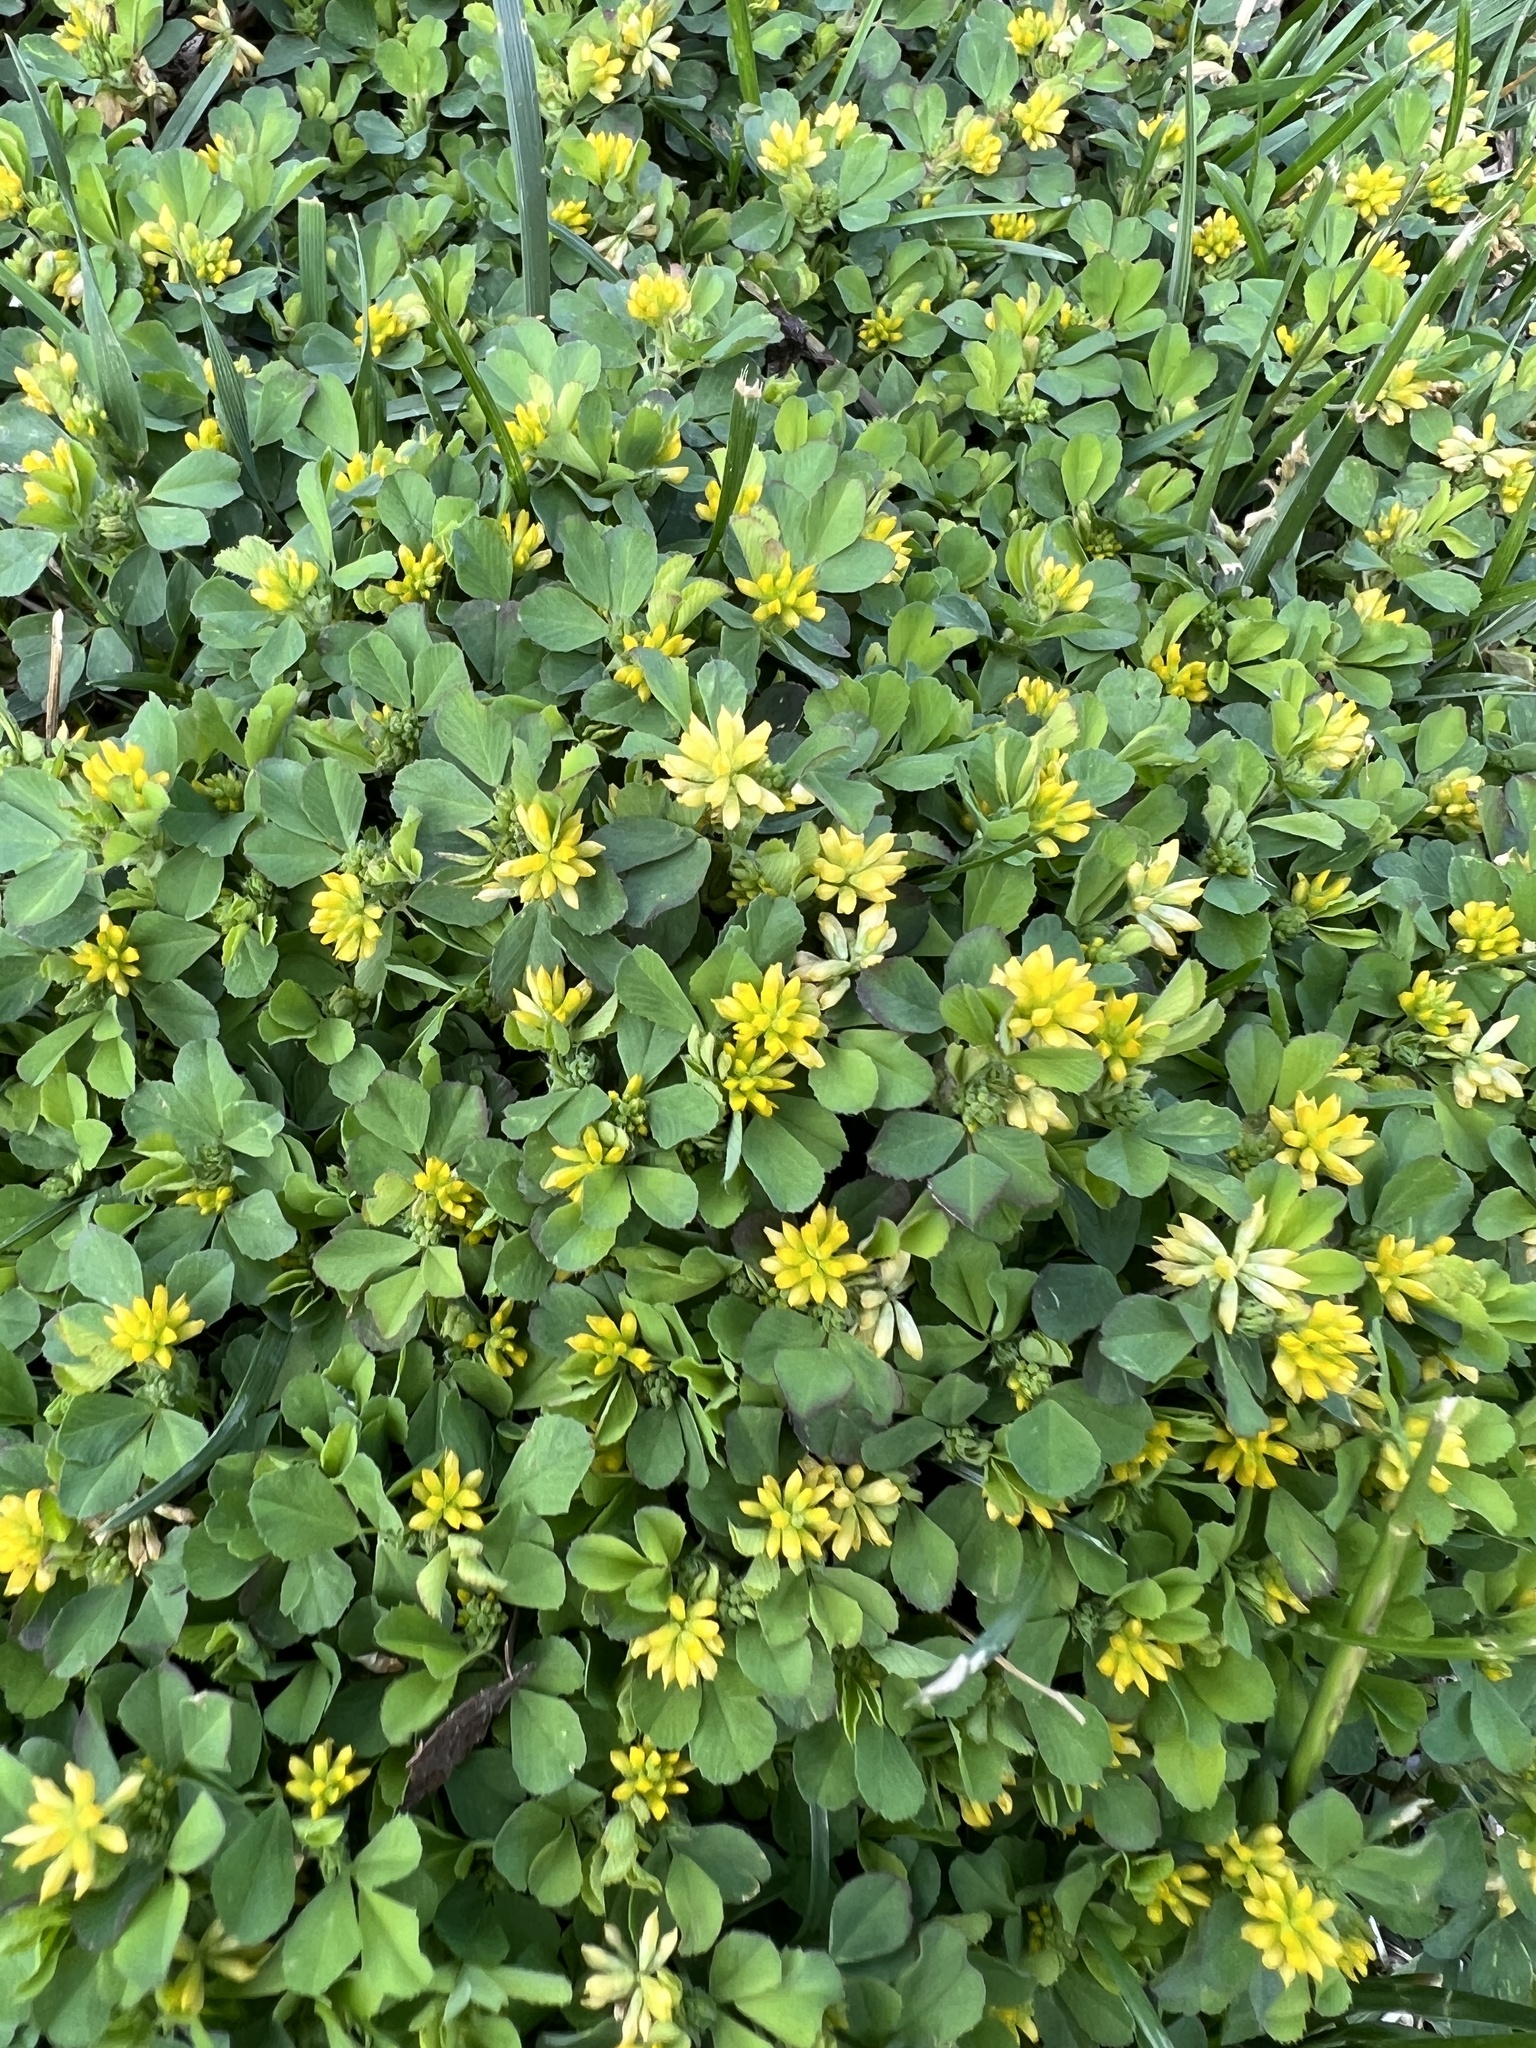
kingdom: Plantae
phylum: Tracheophyta
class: Magnoliopsida
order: Fabales
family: Fabaceae
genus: Trifolium
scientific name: Trifolium dubium
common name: Suckling clover
